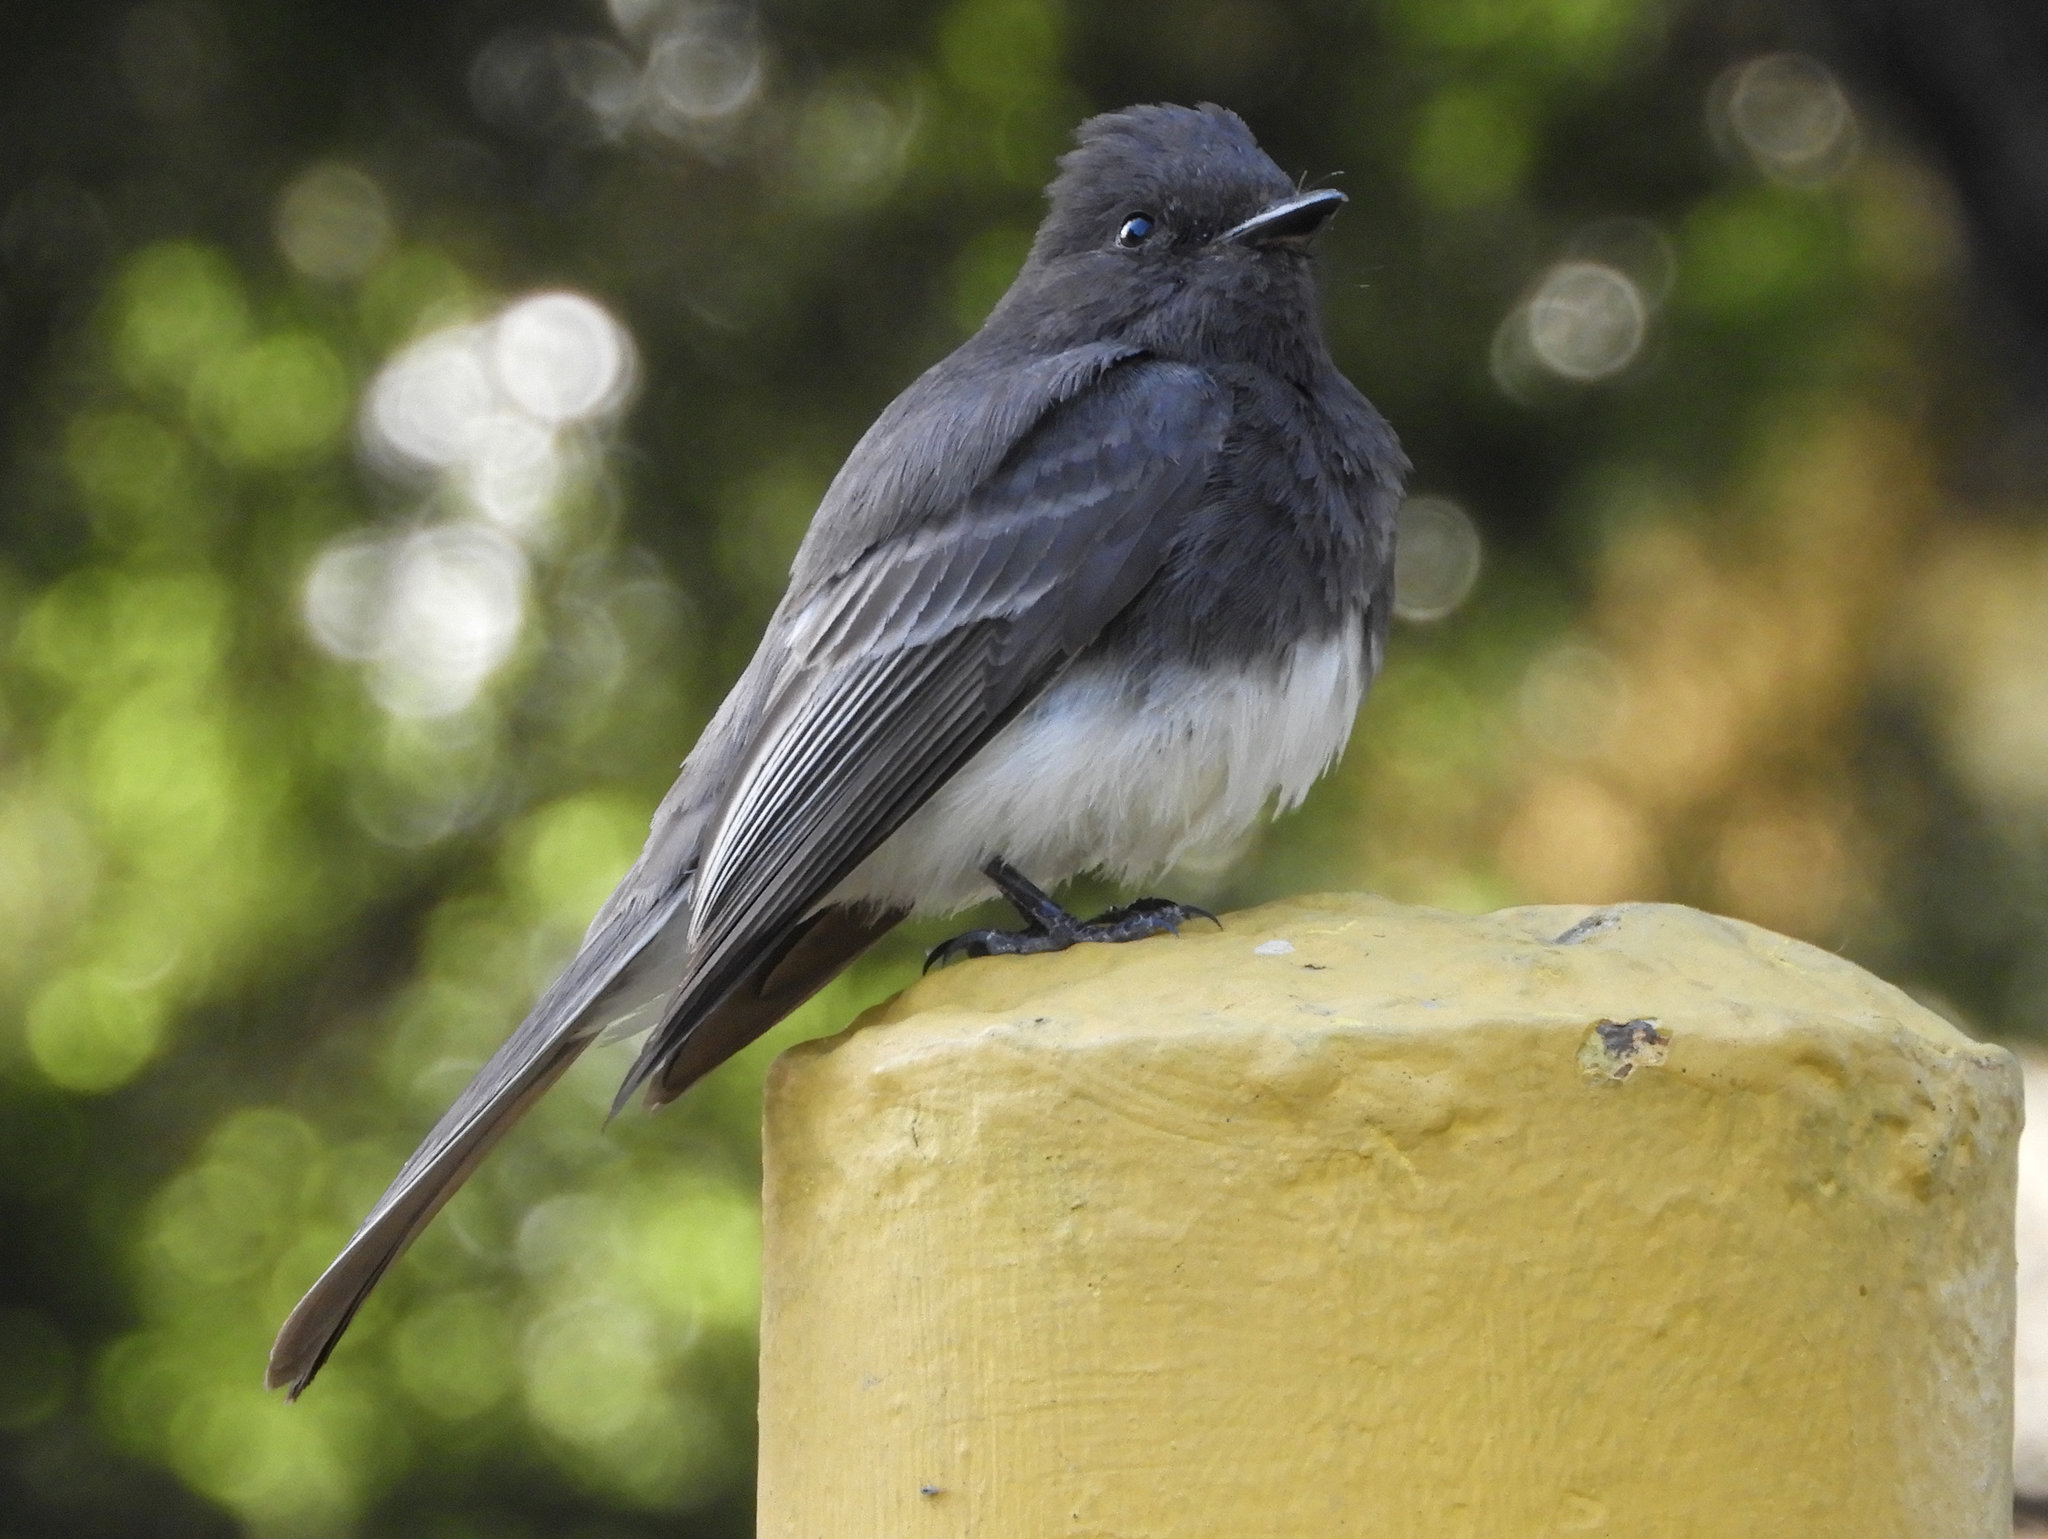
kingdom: Animalia
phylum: Chordata
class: Aves
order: Passeriformes
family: Tyrannidae
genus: Sayornis
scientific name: Sayornis nigricans
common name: Black phoebe
